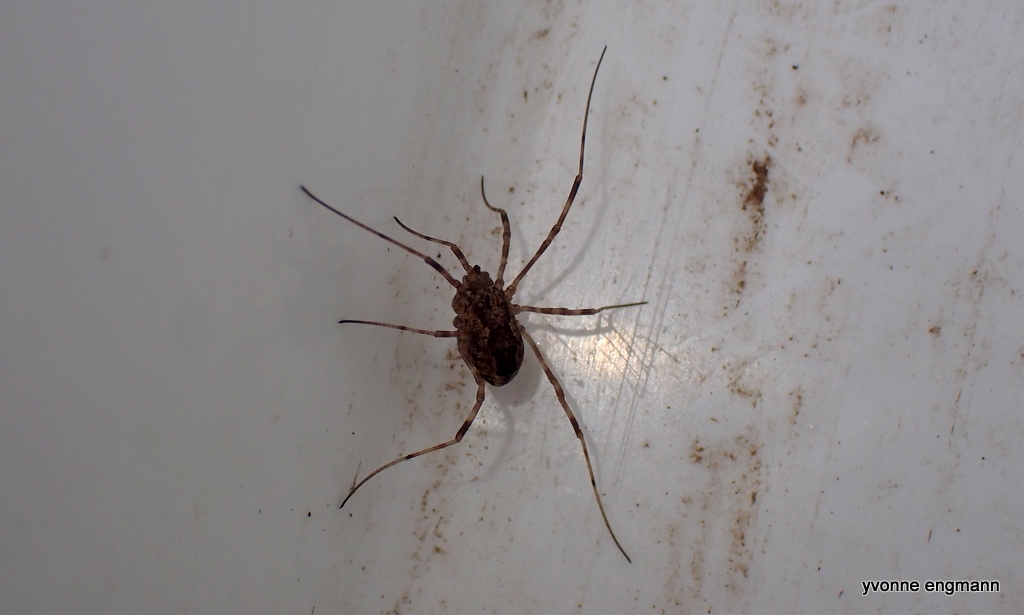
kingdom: Animalia
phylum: Arthropoda
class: Arachnida
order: Opiliones
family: Phalangiidae
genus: Rilaena
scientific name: Rilaena triangularis
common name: Spring harvestman
